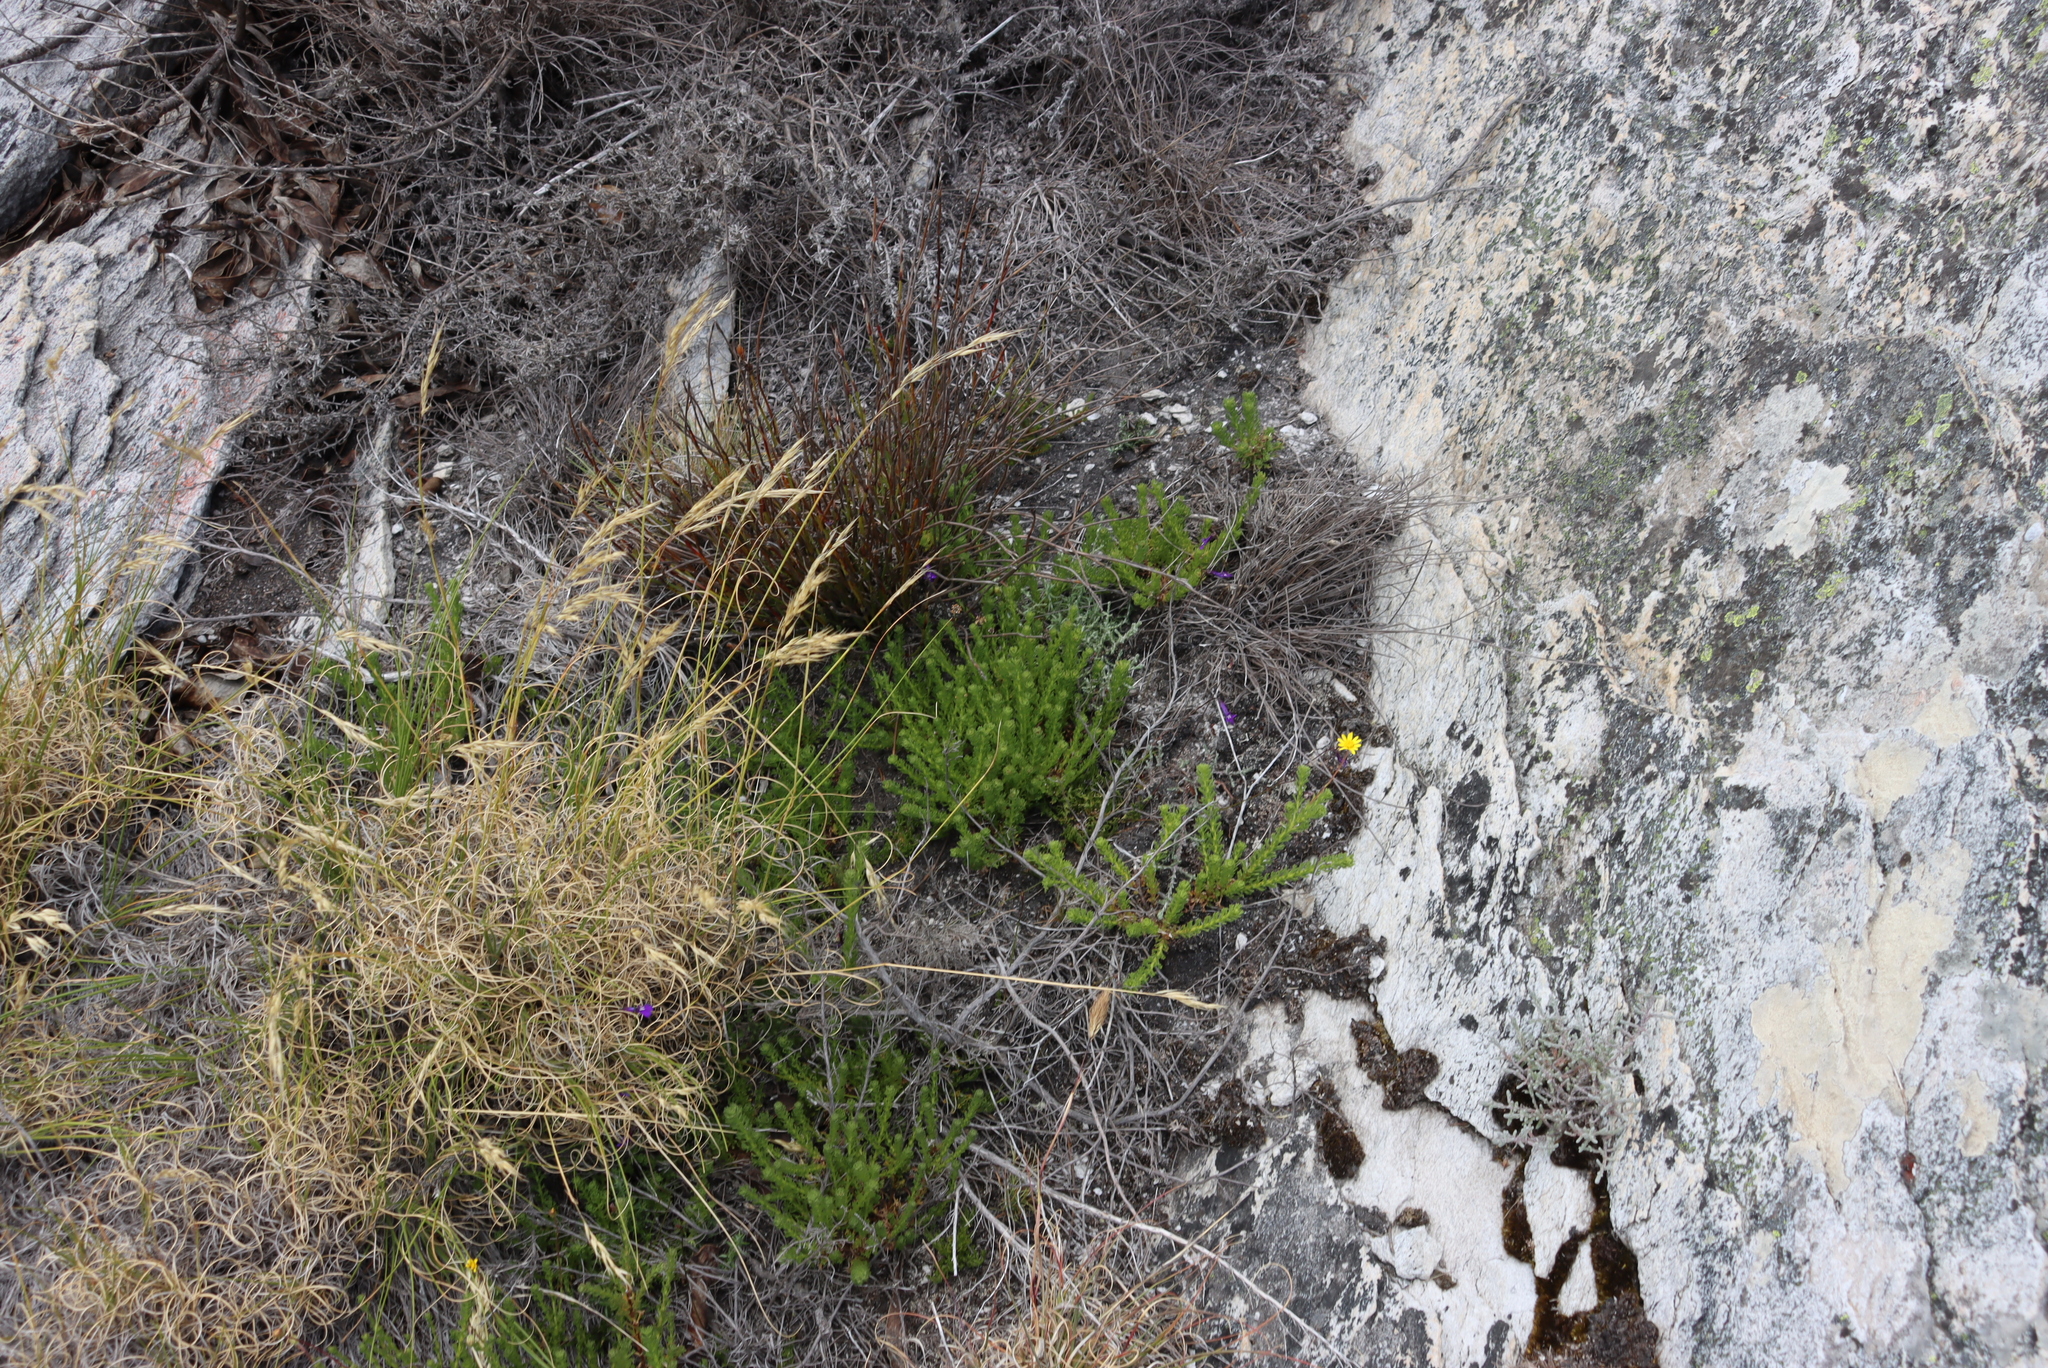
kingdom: Plantae
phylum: Tracheophyta
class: Magnoliopsida
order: Asterales
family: Asteraceae
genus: Ursinia
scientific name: Ursinia trifida
